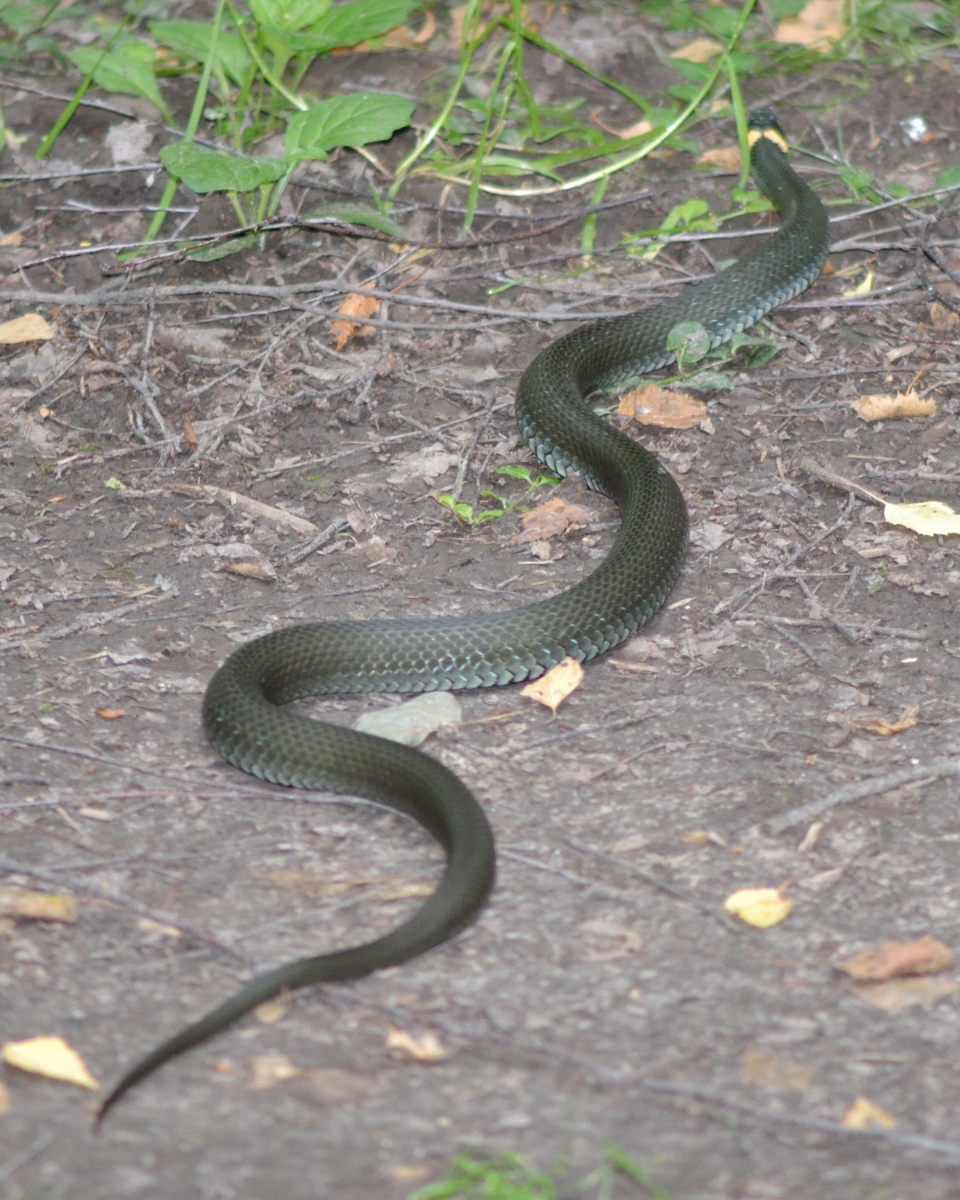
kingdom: Animalia
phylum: Chordata
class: Squamata
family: Colubridae
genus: Natrix
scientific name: Natrix natrix
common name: Grass snake
